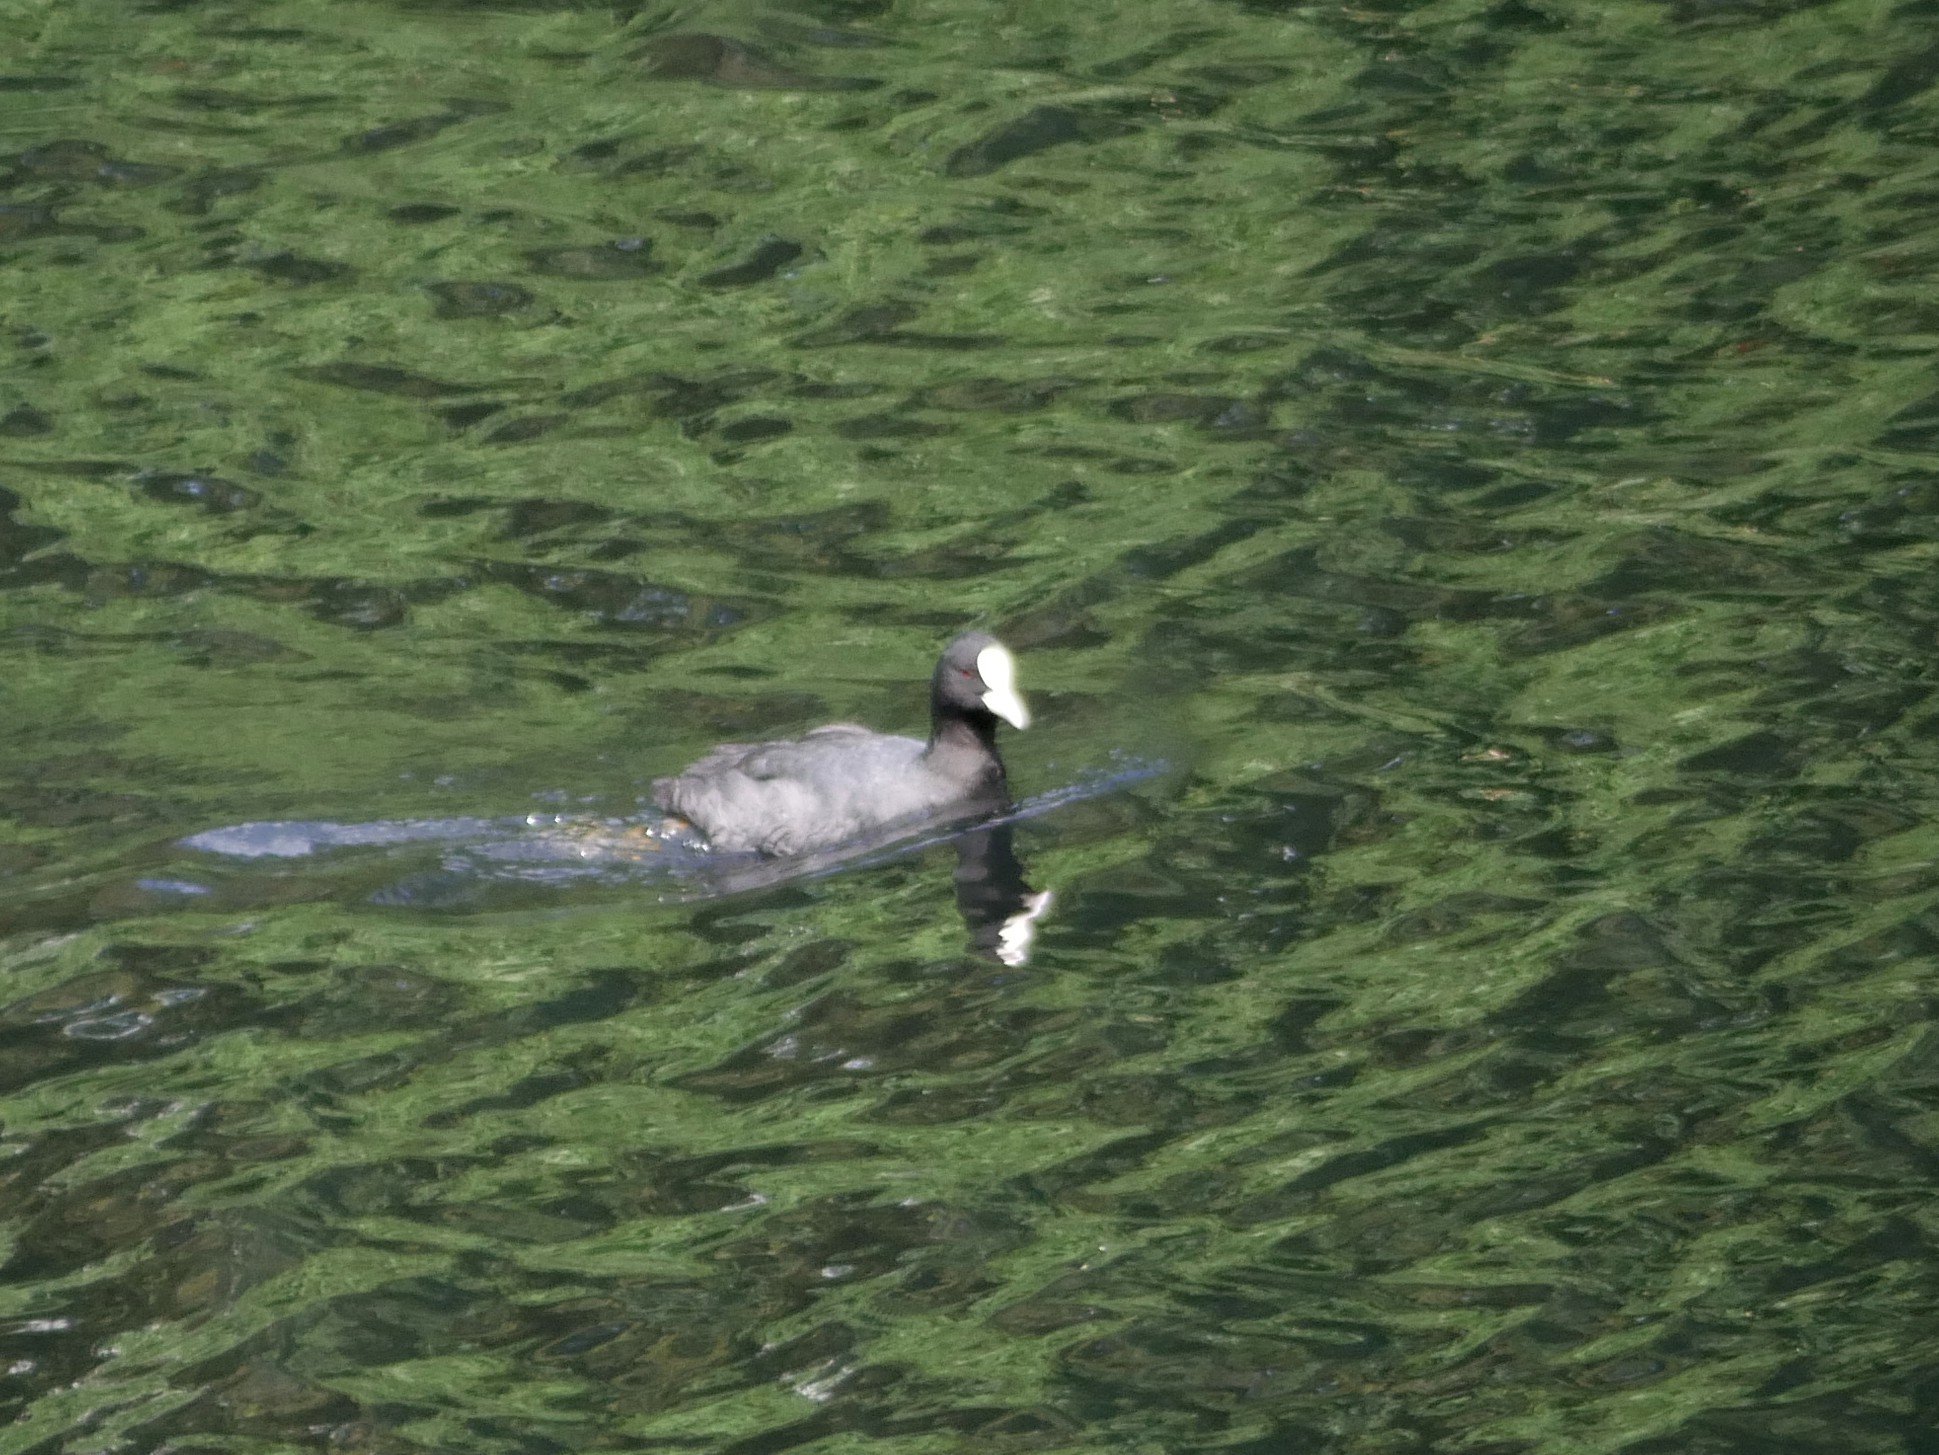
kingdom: Animalia
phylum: Chordata
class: Aves
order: Gruiformes
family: Rallidae
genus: Fulica
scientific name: Fulica atra
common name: Eurasian coot
